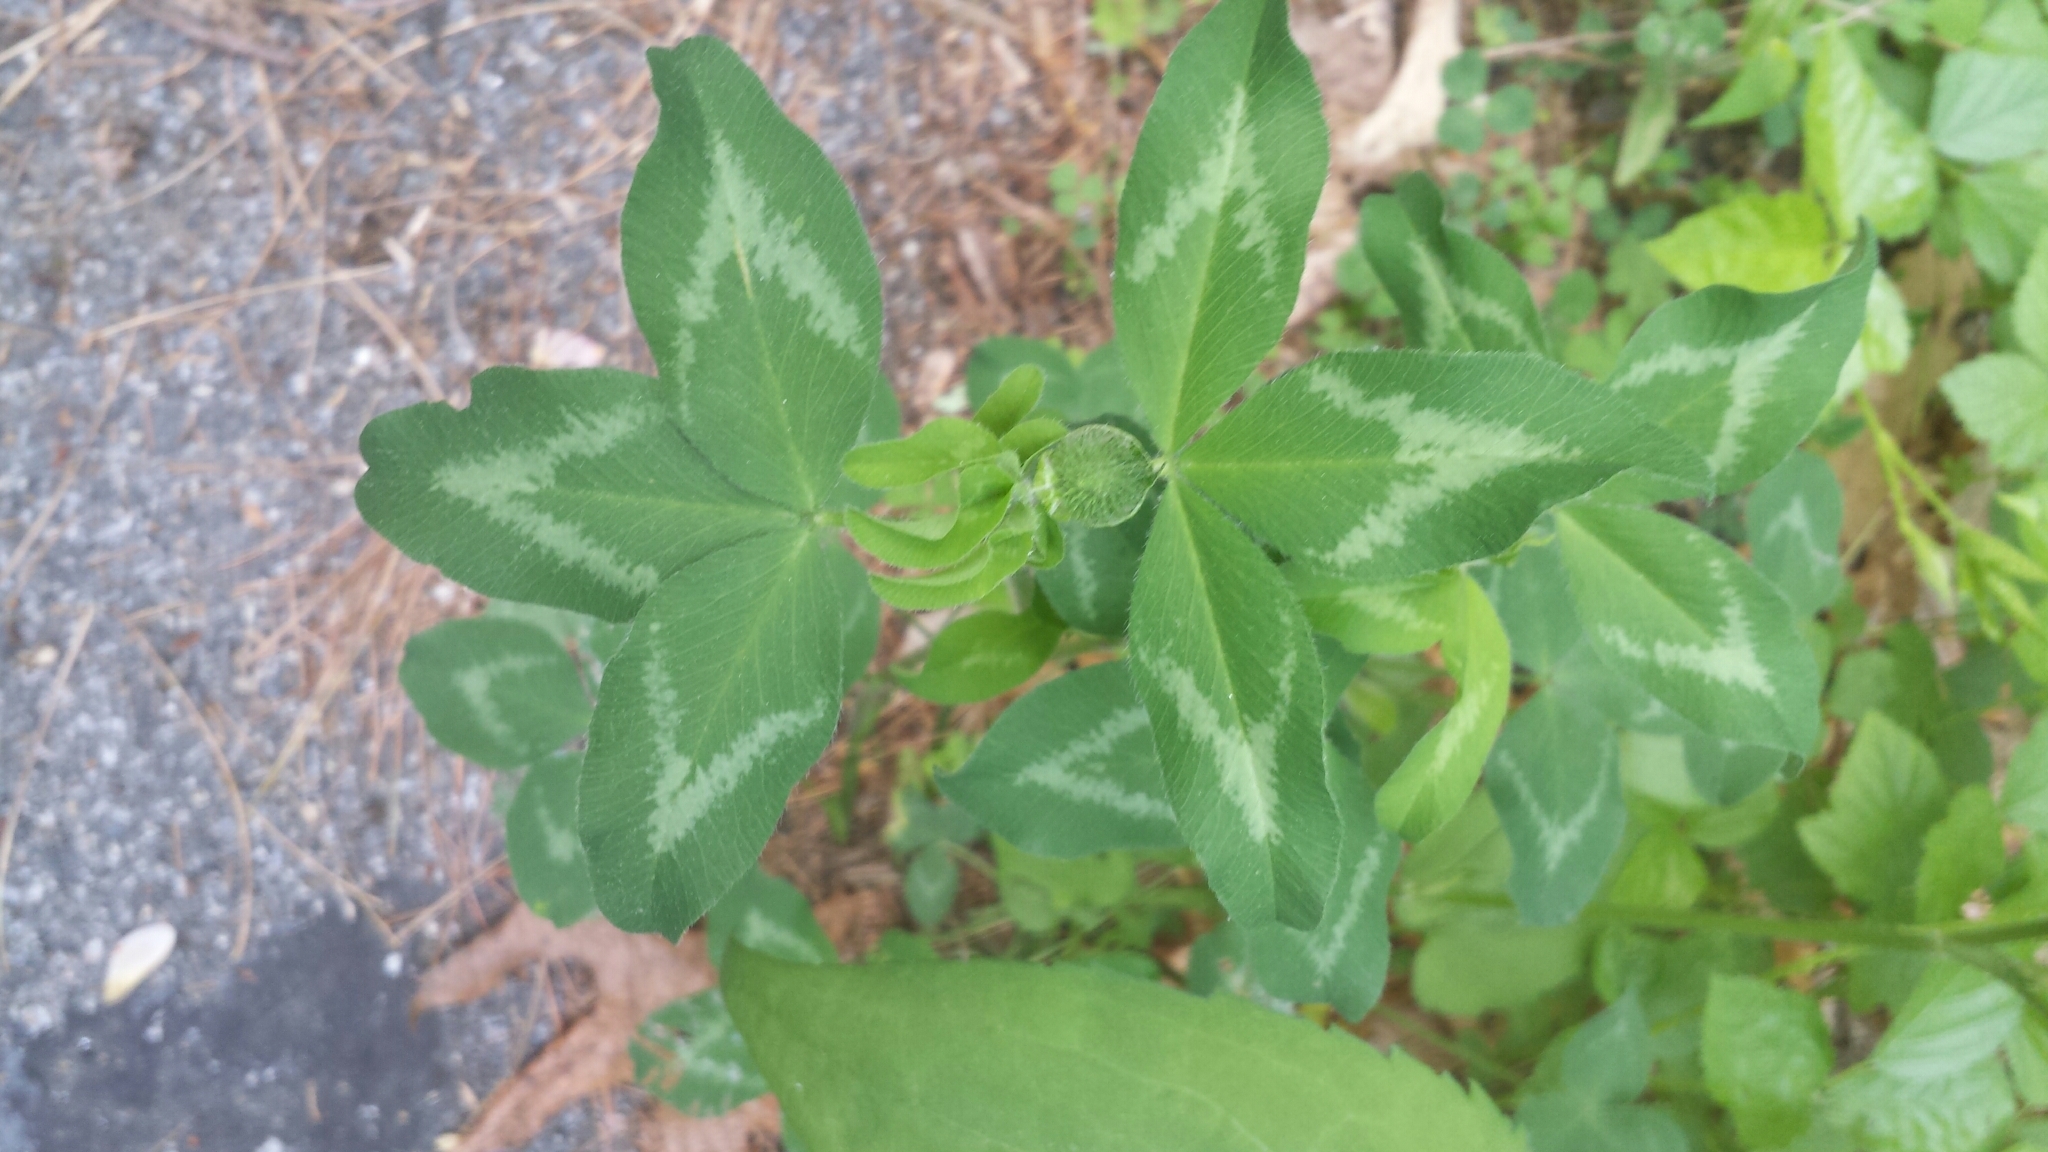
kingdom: Plantae
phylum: Tracheophyta
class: Magnoliopsida
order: Fabales
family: Fabaceae
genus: Trifolium
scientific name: Trifolium pratense
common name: Red clover
